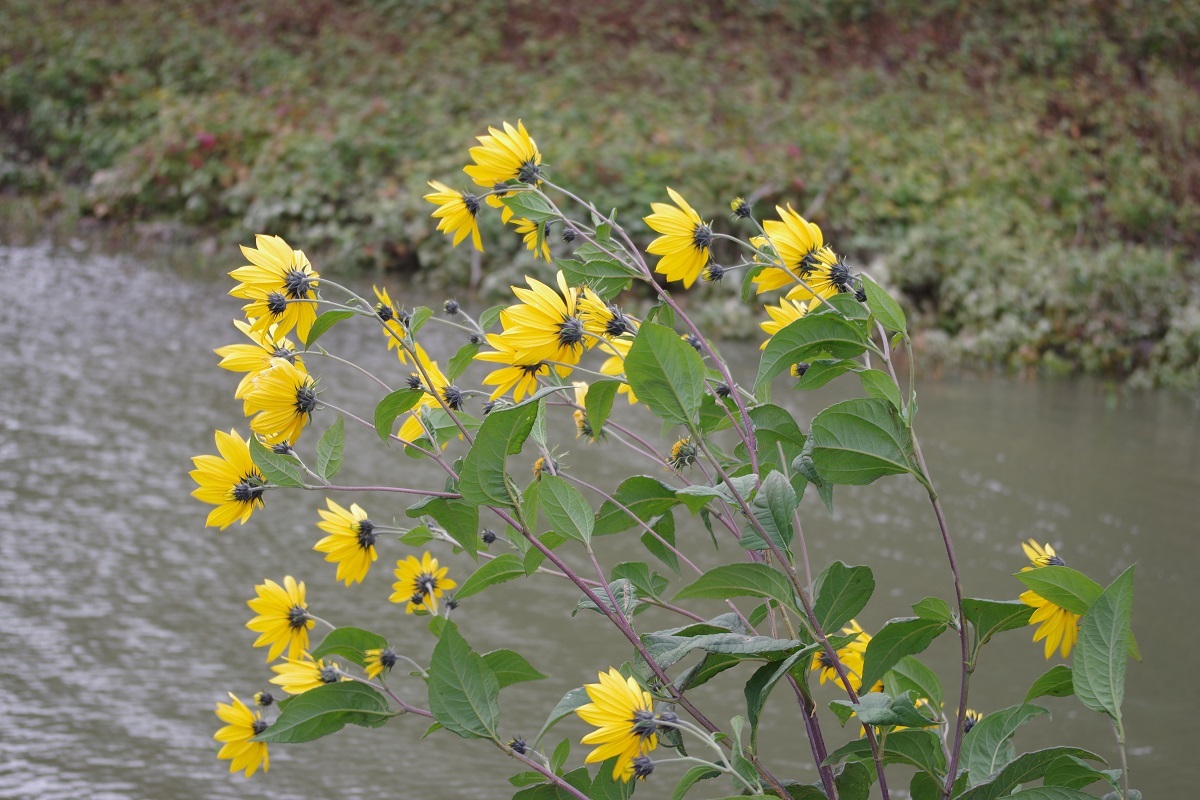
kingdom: Plantae
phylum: Tracheophyta
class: Magnoliopsida
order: Asterales
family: Asteraceae
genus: Helianthus
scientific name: Helianthus tuberosus
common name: Jerusalem artichoke
